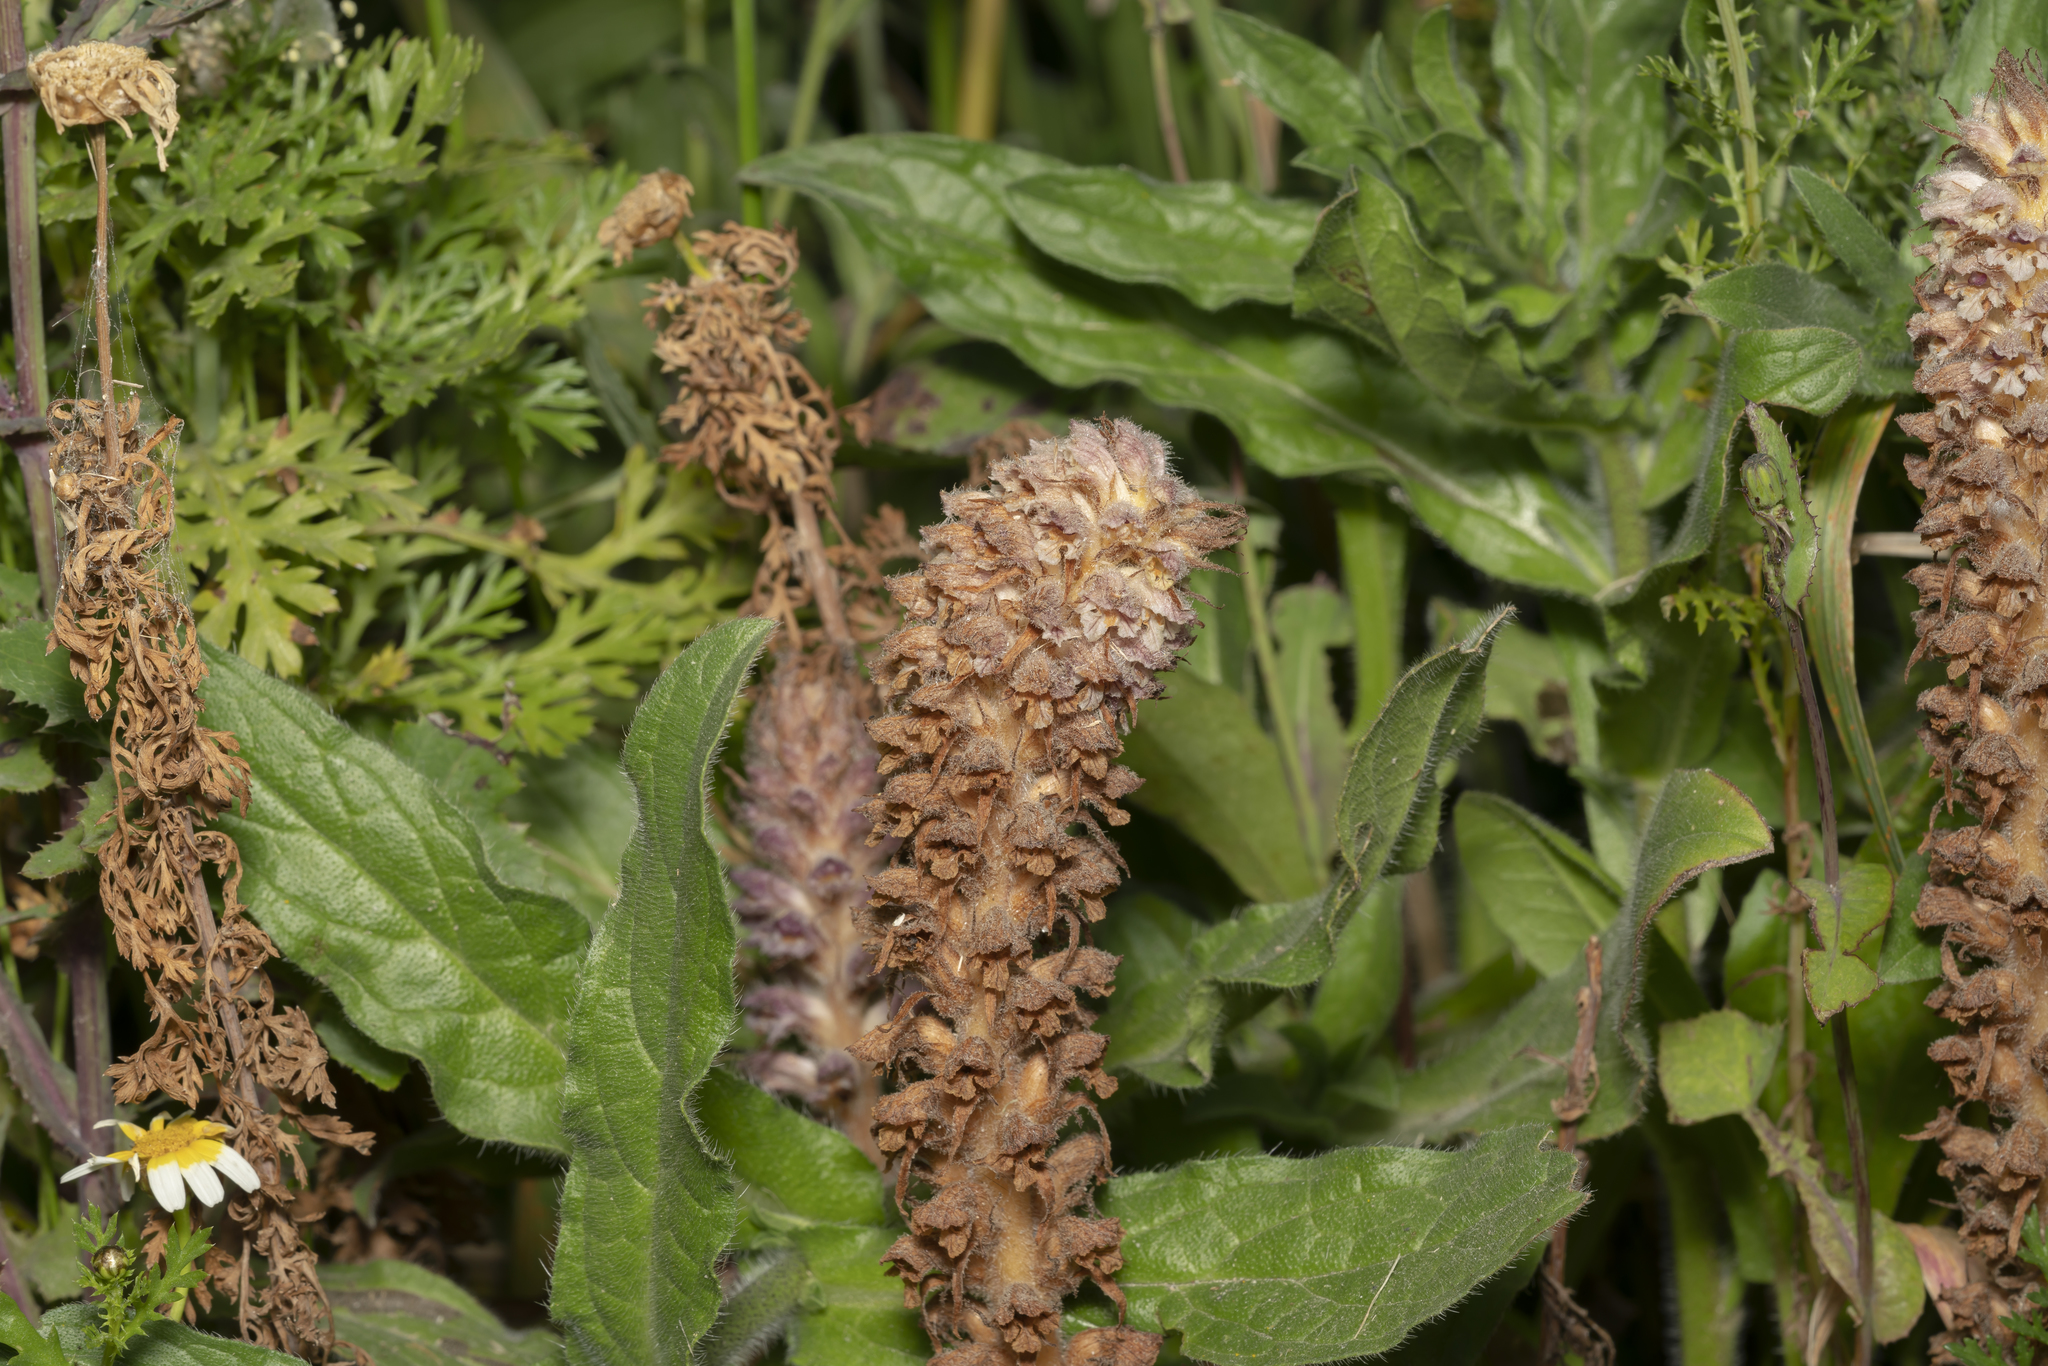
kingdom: Plantae
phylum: Tracheophyta
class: Magnoliopsida
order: Lamiales
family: Orobanchaceae
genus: Orobanche
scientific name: Orobanche pubescens
